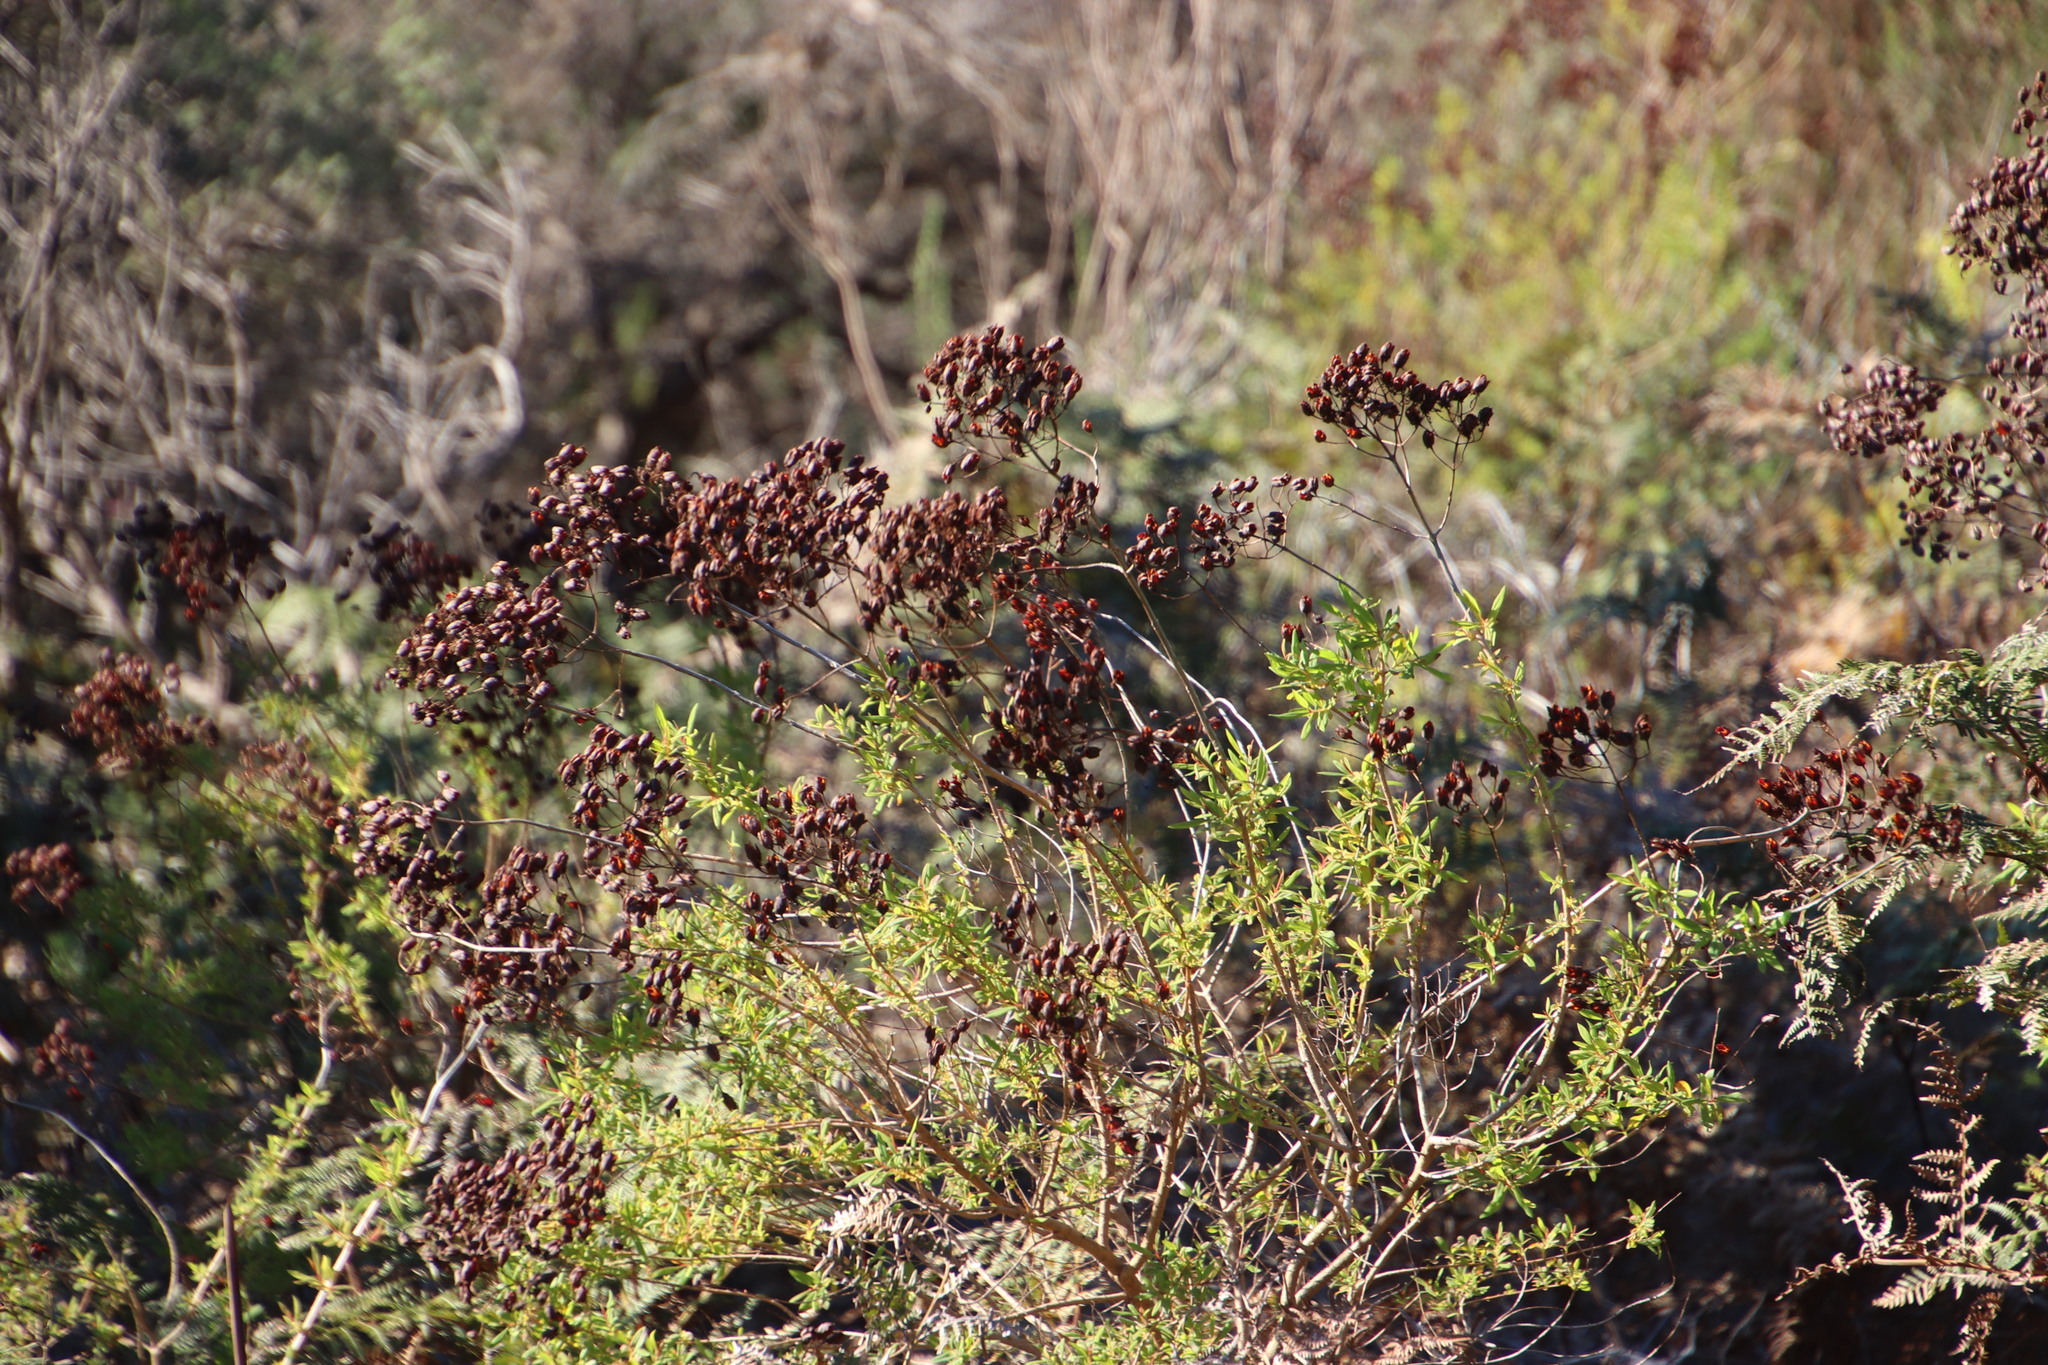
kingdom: Plantae
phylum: Tracheophyta
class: Magnoliopsida
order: Malpighiales
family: Hypericaceae
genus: Hypericum
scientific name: Hypericum canariense
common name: Canary island st. johnswort
